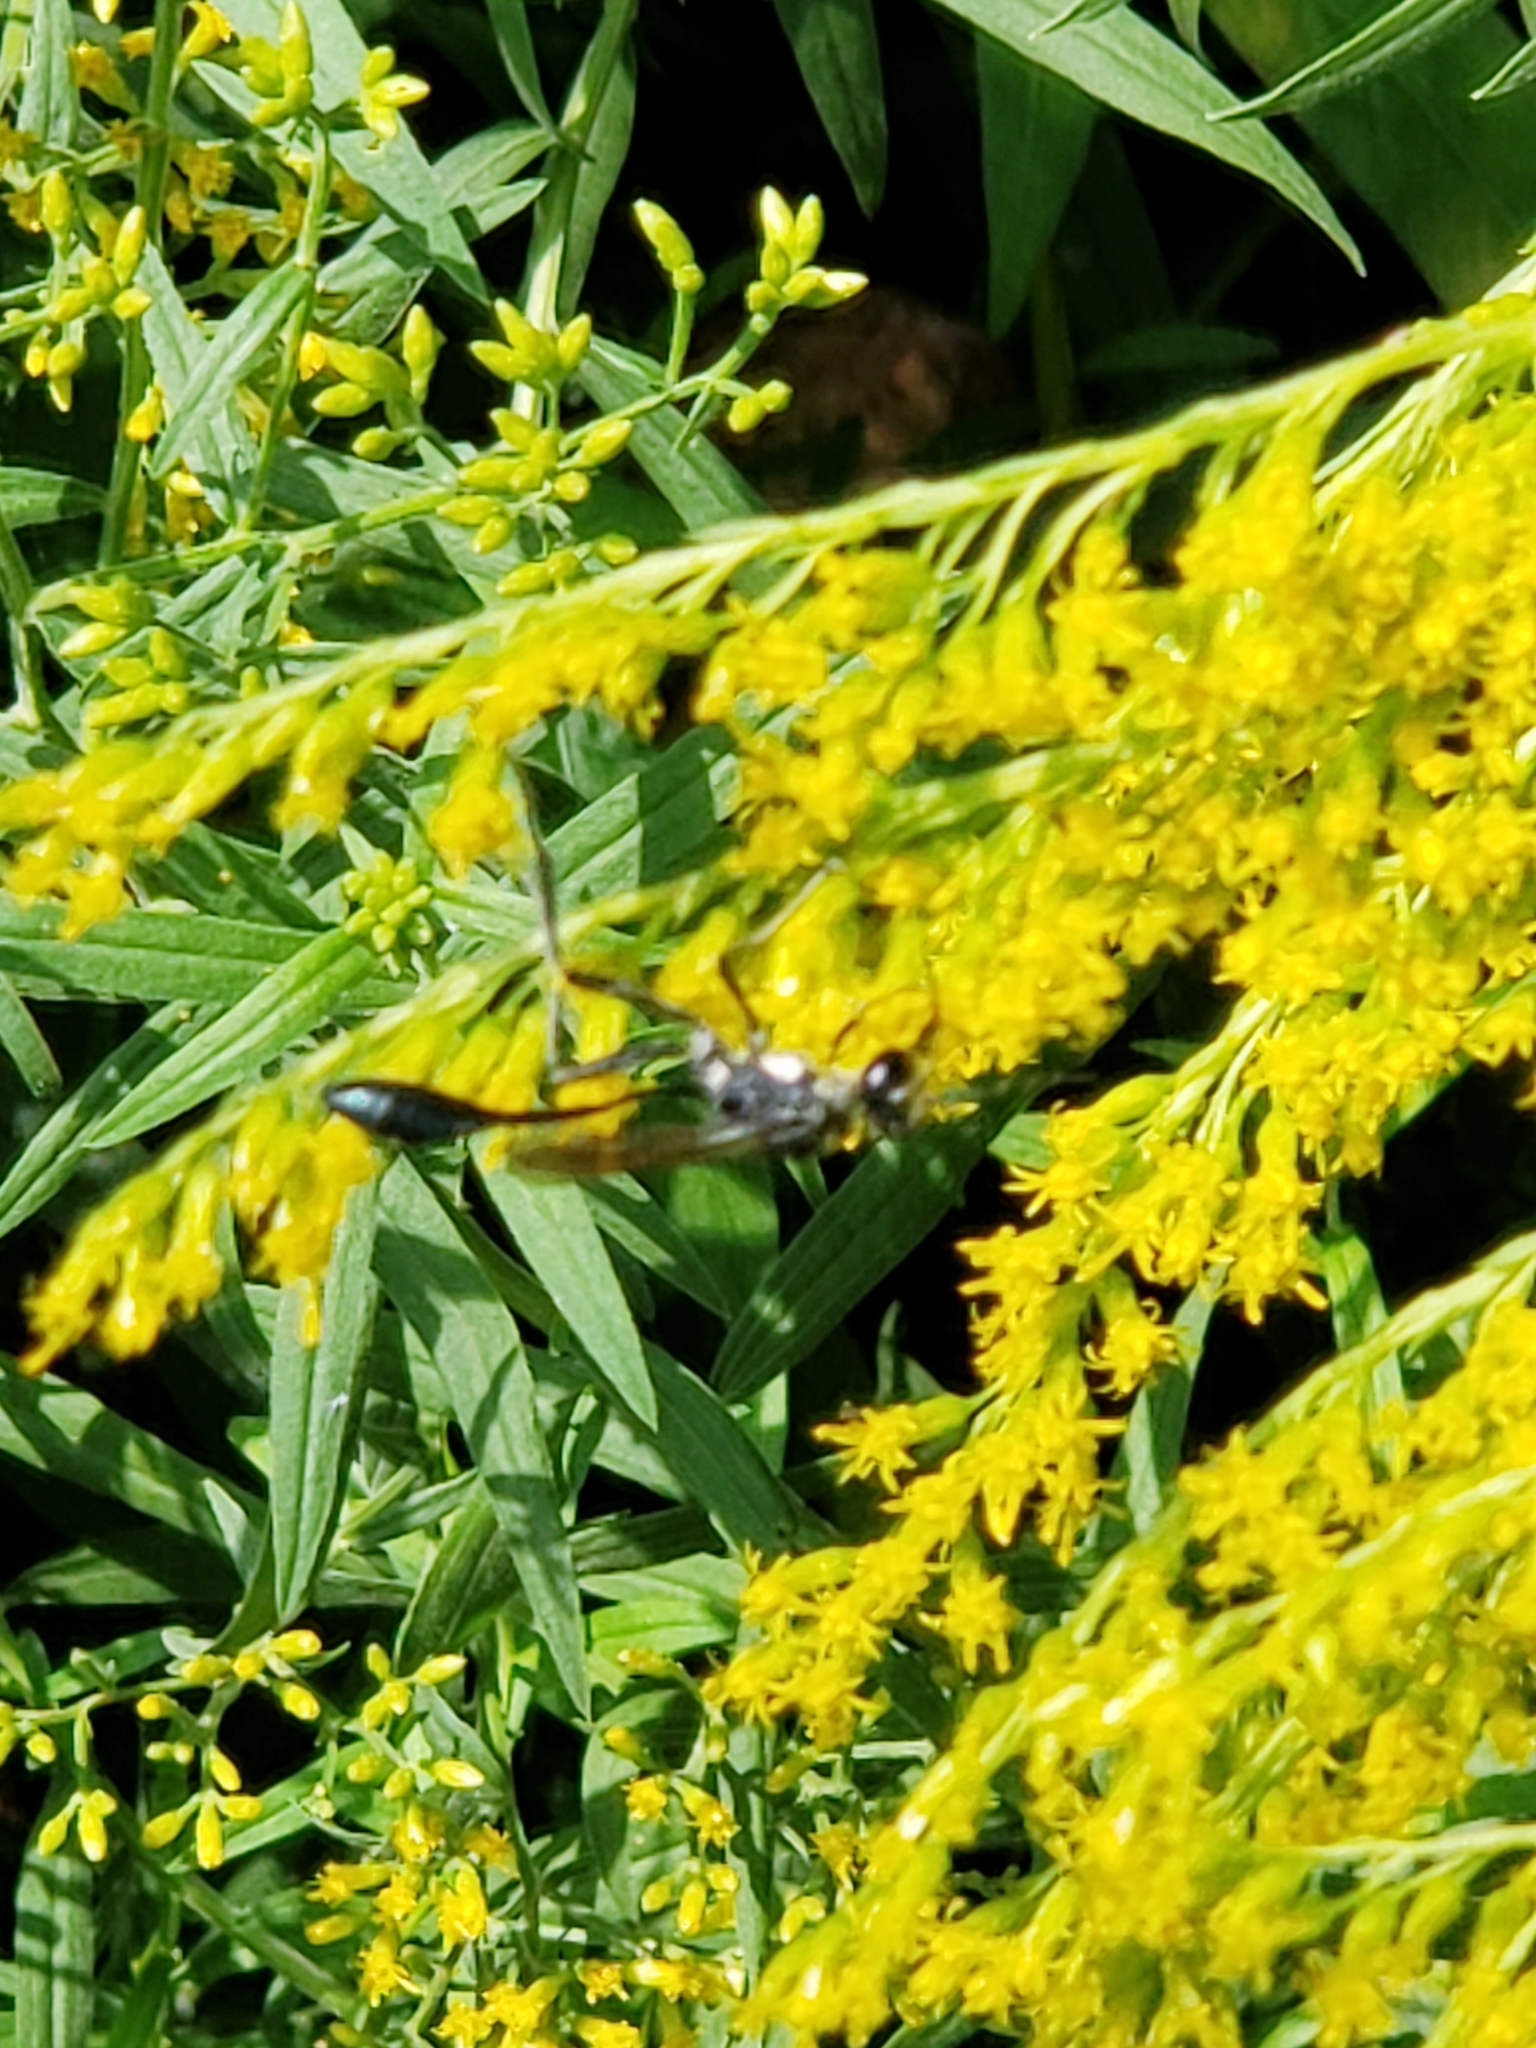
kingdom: Animalia
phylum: Arthropoda
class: Insecta
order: Hymenoptera
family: Sphecidae
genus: Eremnophila
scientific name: Eremnophila aureonotata
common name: Gold-marked thread-waisted wasp
